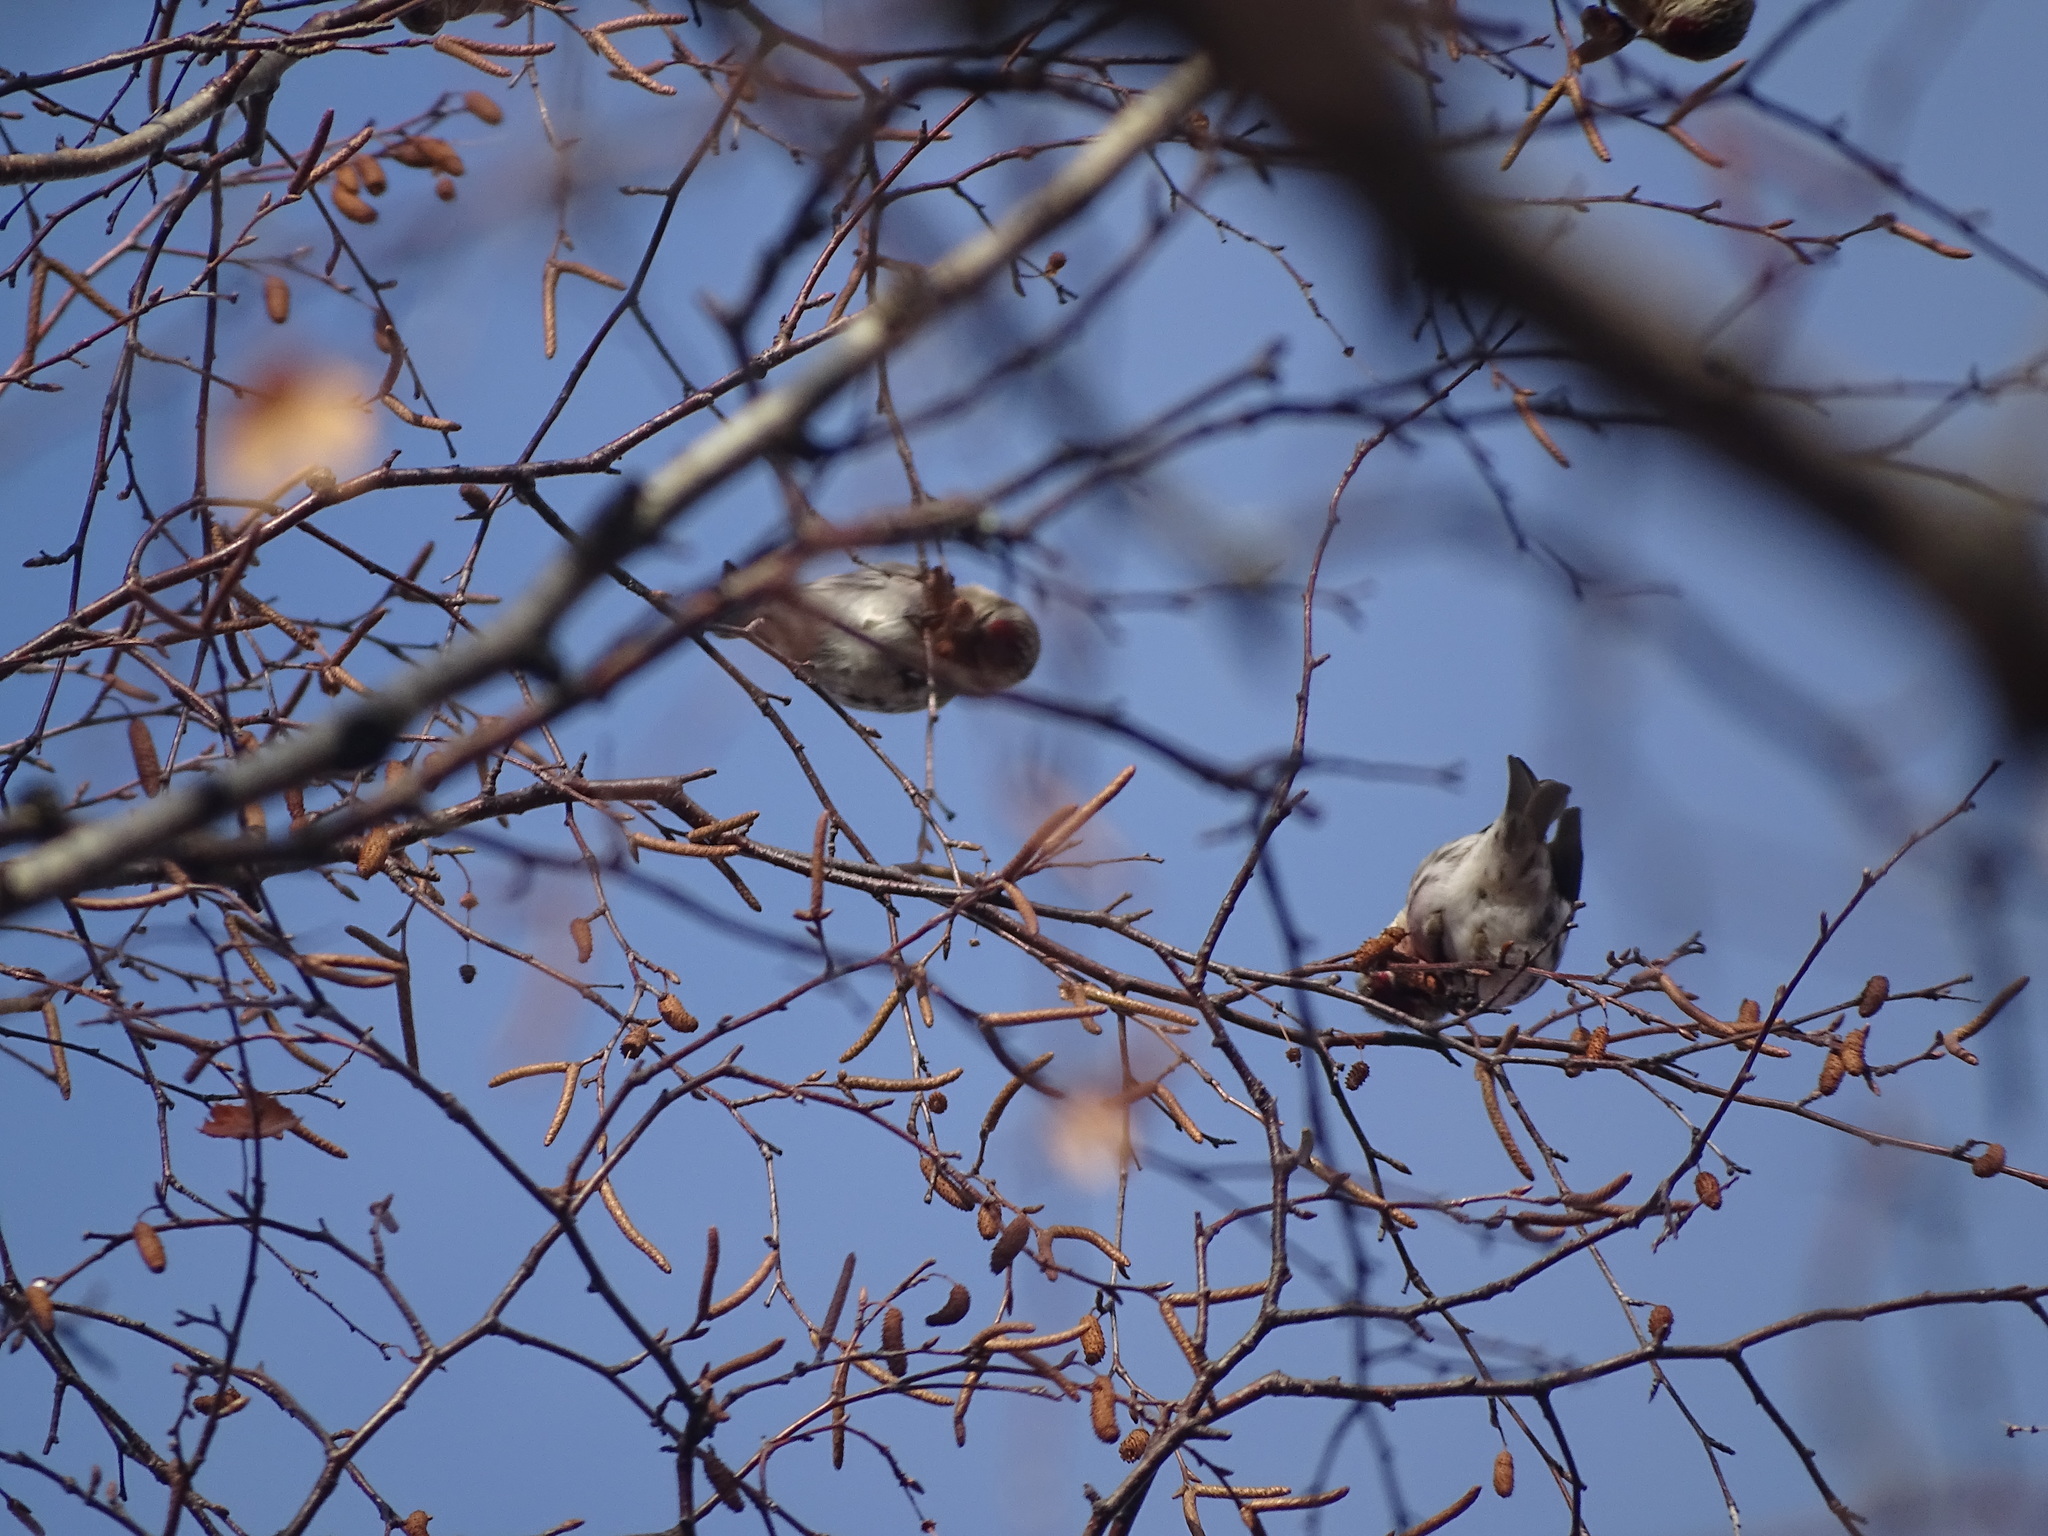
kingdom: Animalia
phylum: Chordata
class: Aves
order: Passeriformes
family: Fringillidae
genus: Acanthis
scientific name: Acanthis flammea
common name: Common redpoll
